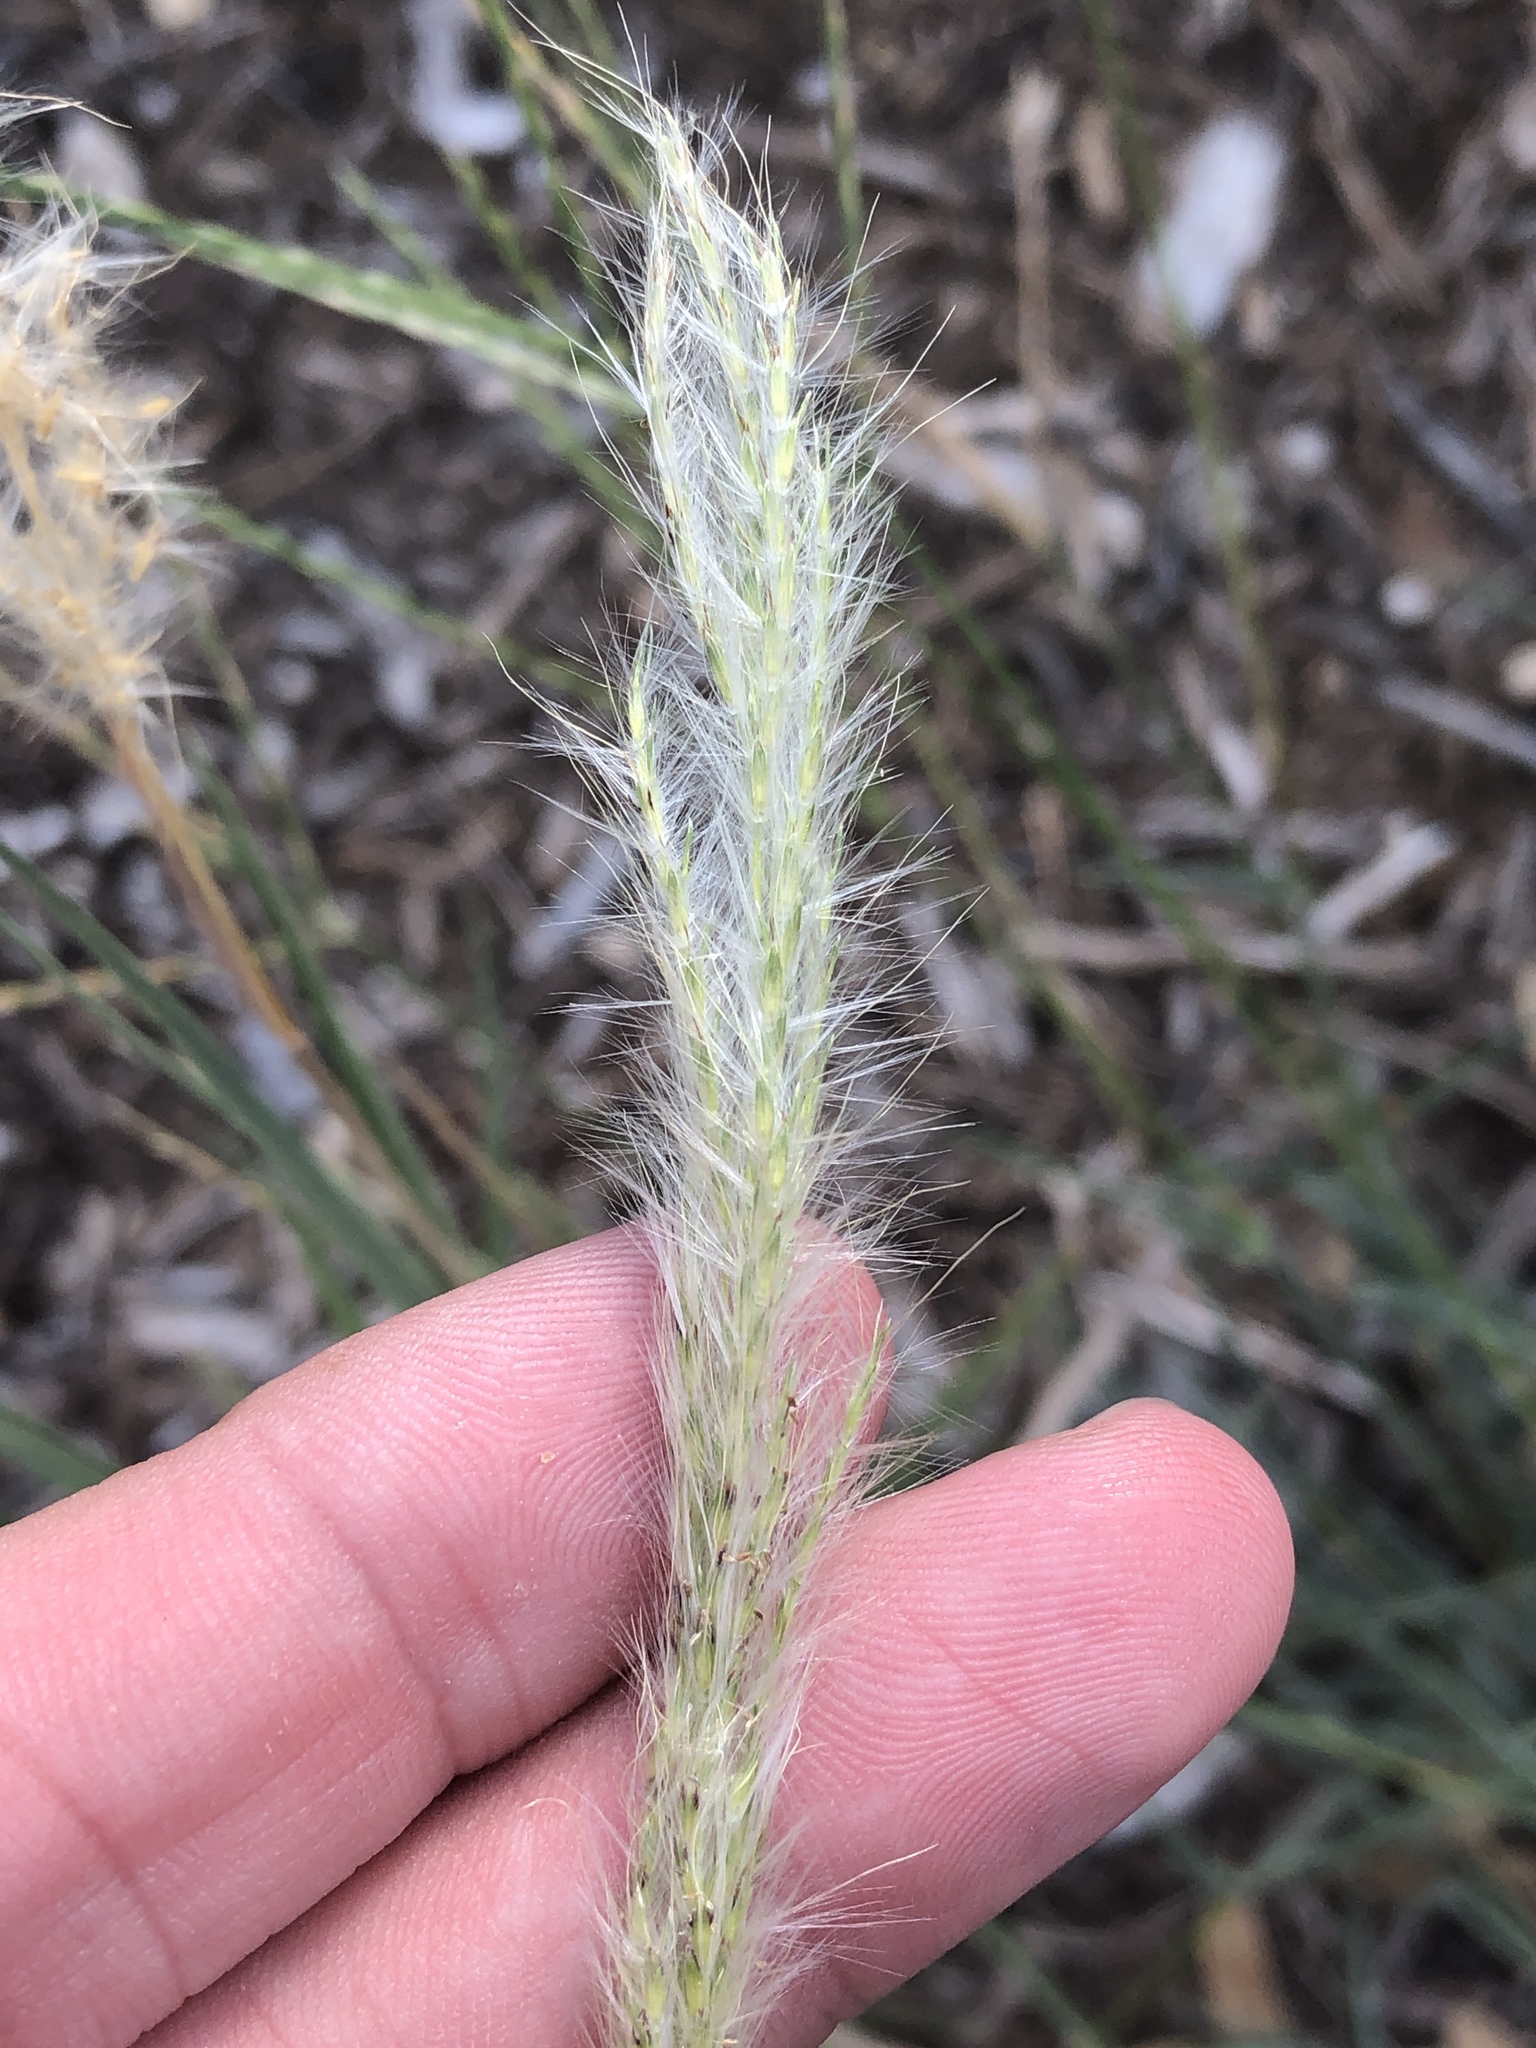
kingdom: Plantae
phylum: Tracheophyta
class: Liliopsida
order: Poales
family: Poaceae
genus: Bothriochloa
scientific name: Bothriochloa torreyana
